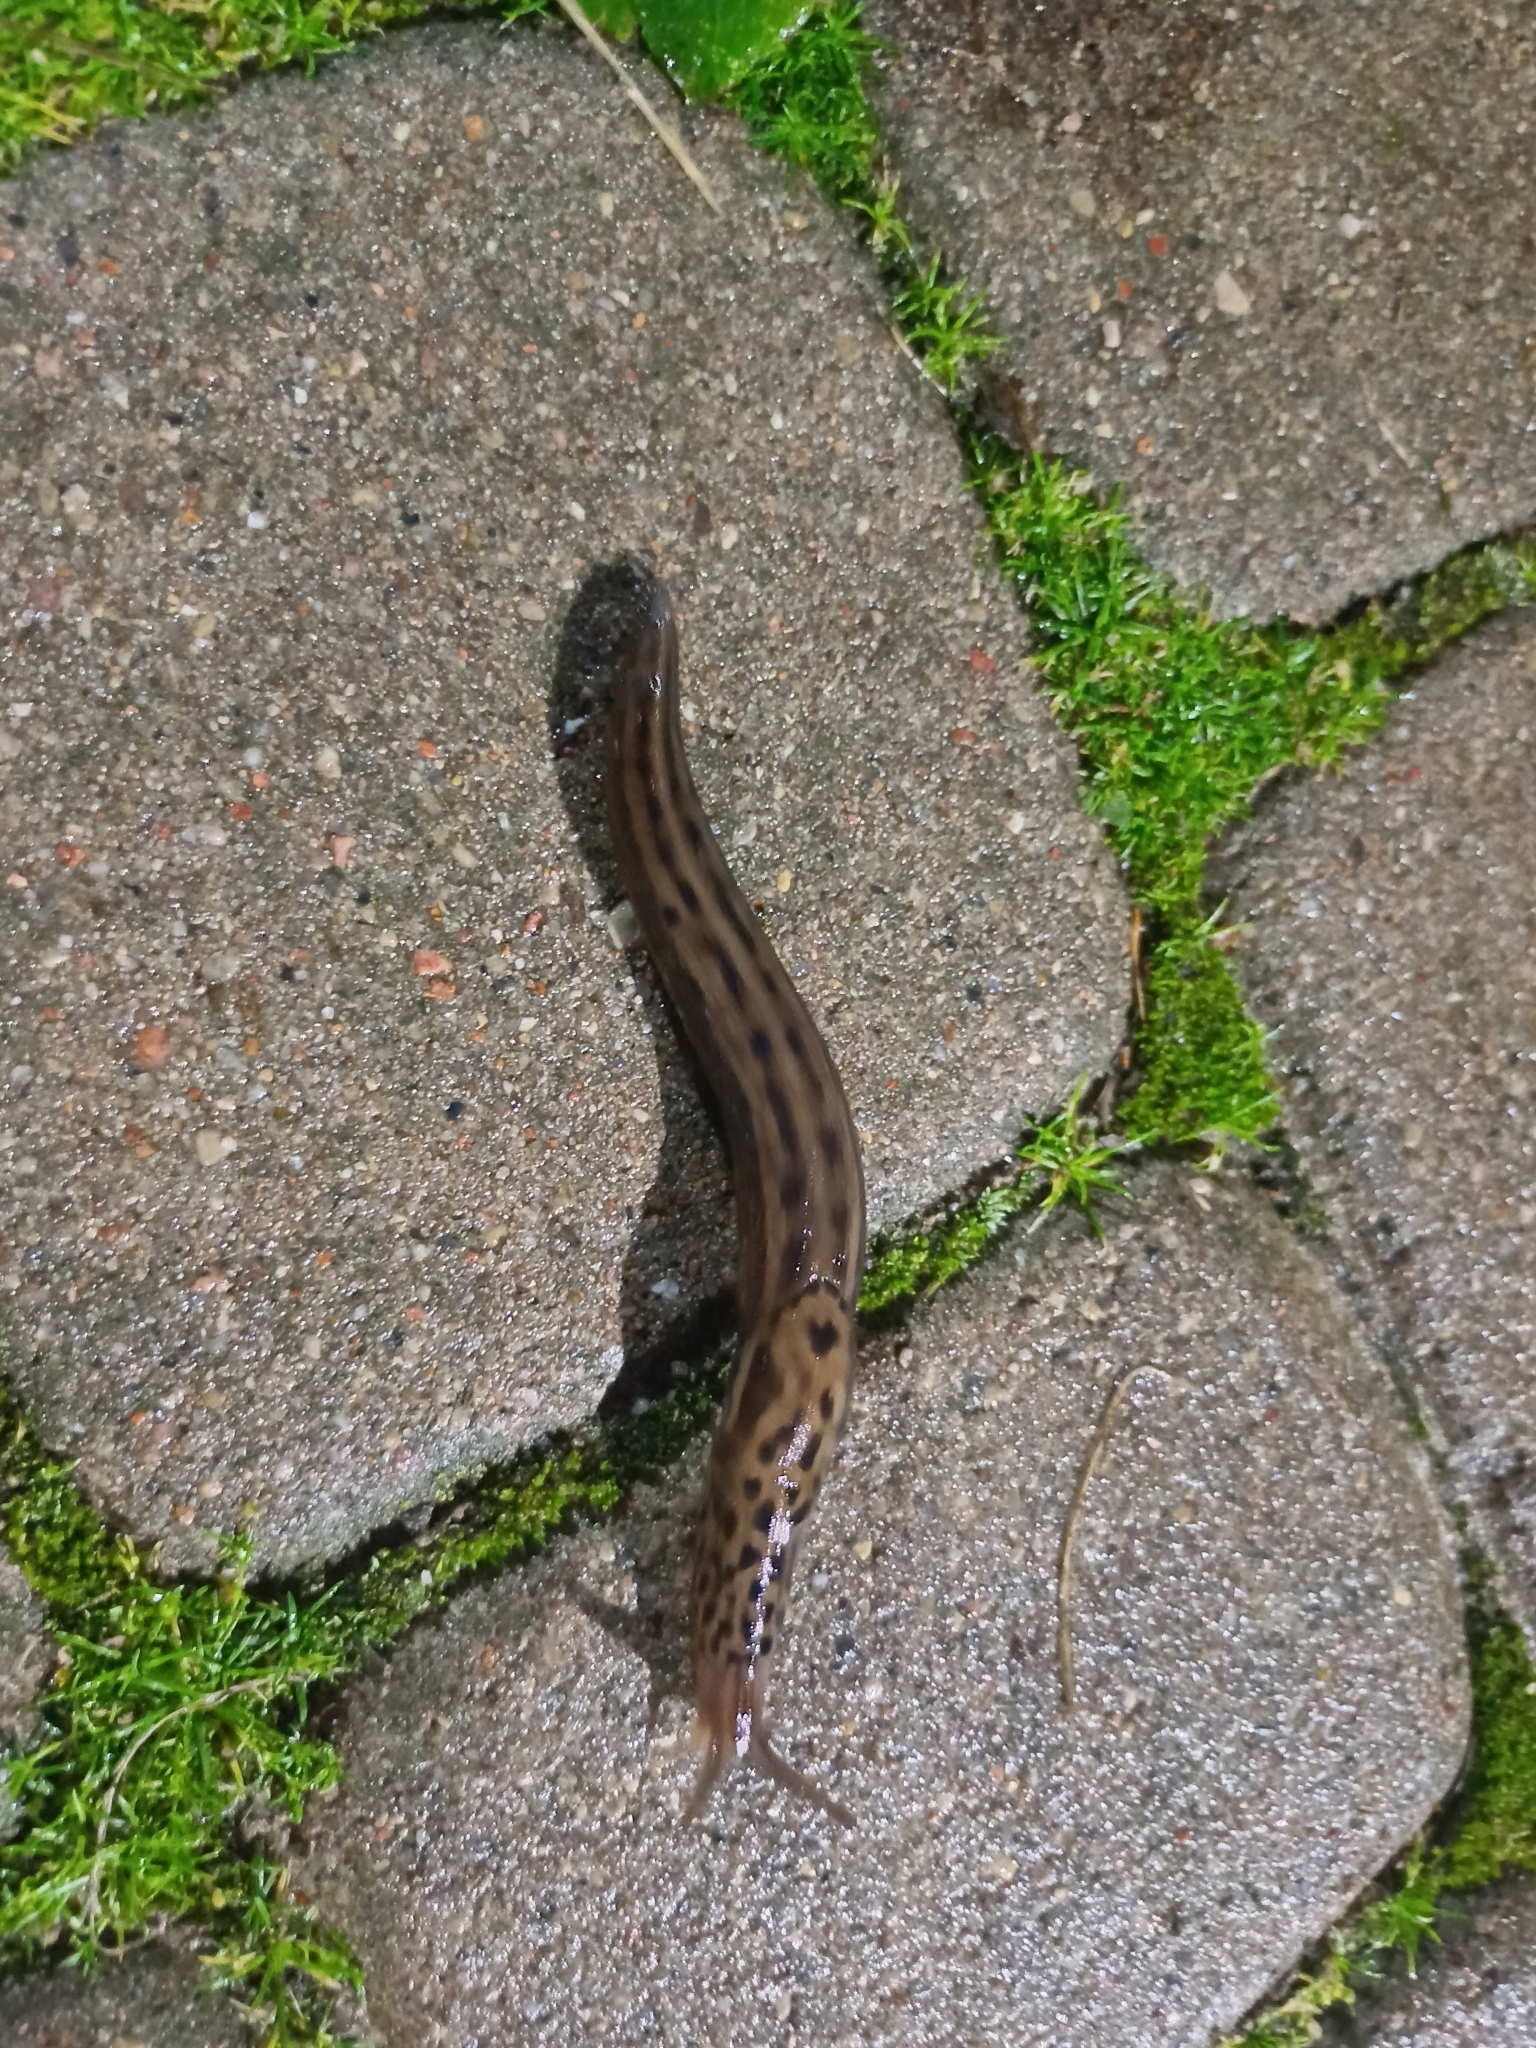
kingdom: Animalia
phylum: Mollusca
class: Gastropoda
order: Stylommatophora
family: Limacidae
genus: Limax
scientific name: Limax maximus
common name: Great grey slug
